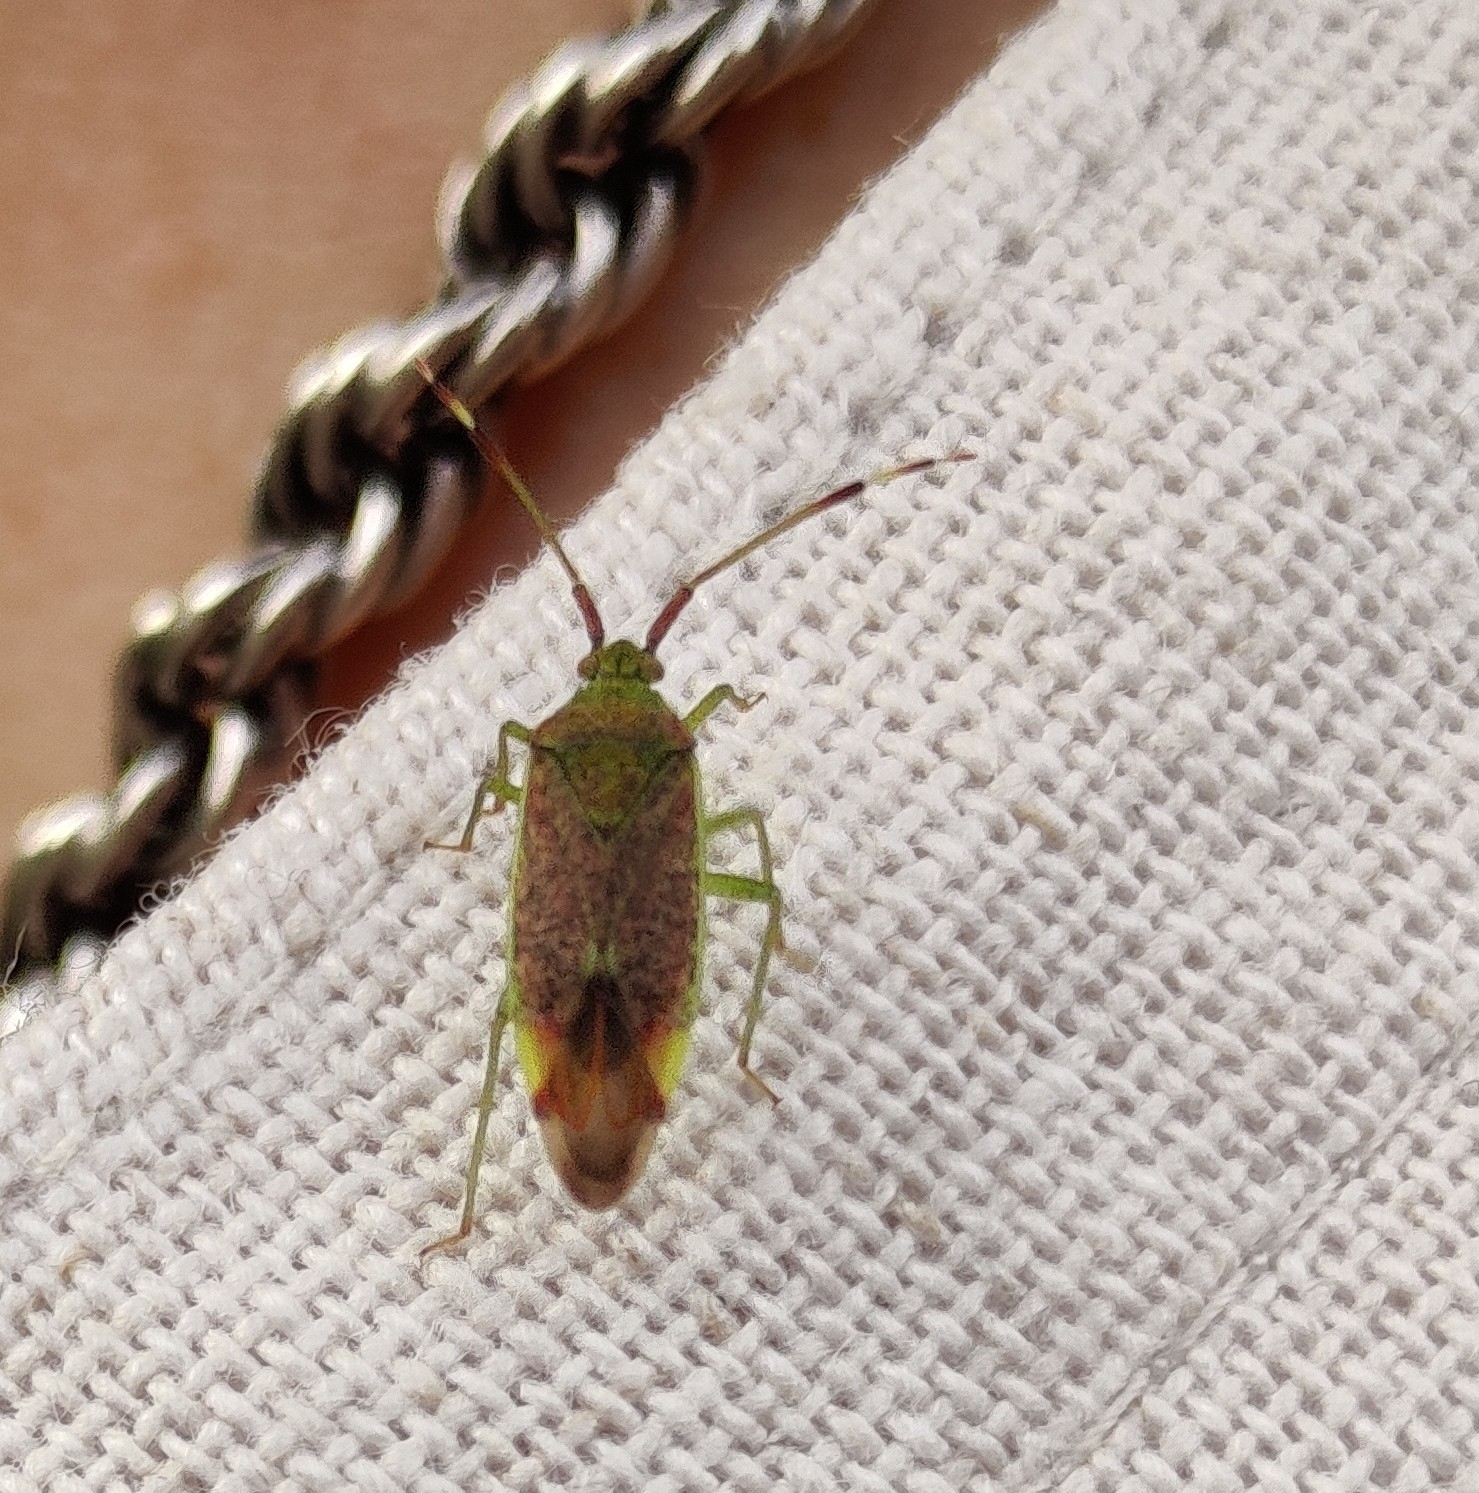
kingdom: Animalia
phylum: Arthropoda
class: Insecta
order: Hemiptera
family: Miridae
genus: Pantilius
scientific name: Pantilius tunicatus
